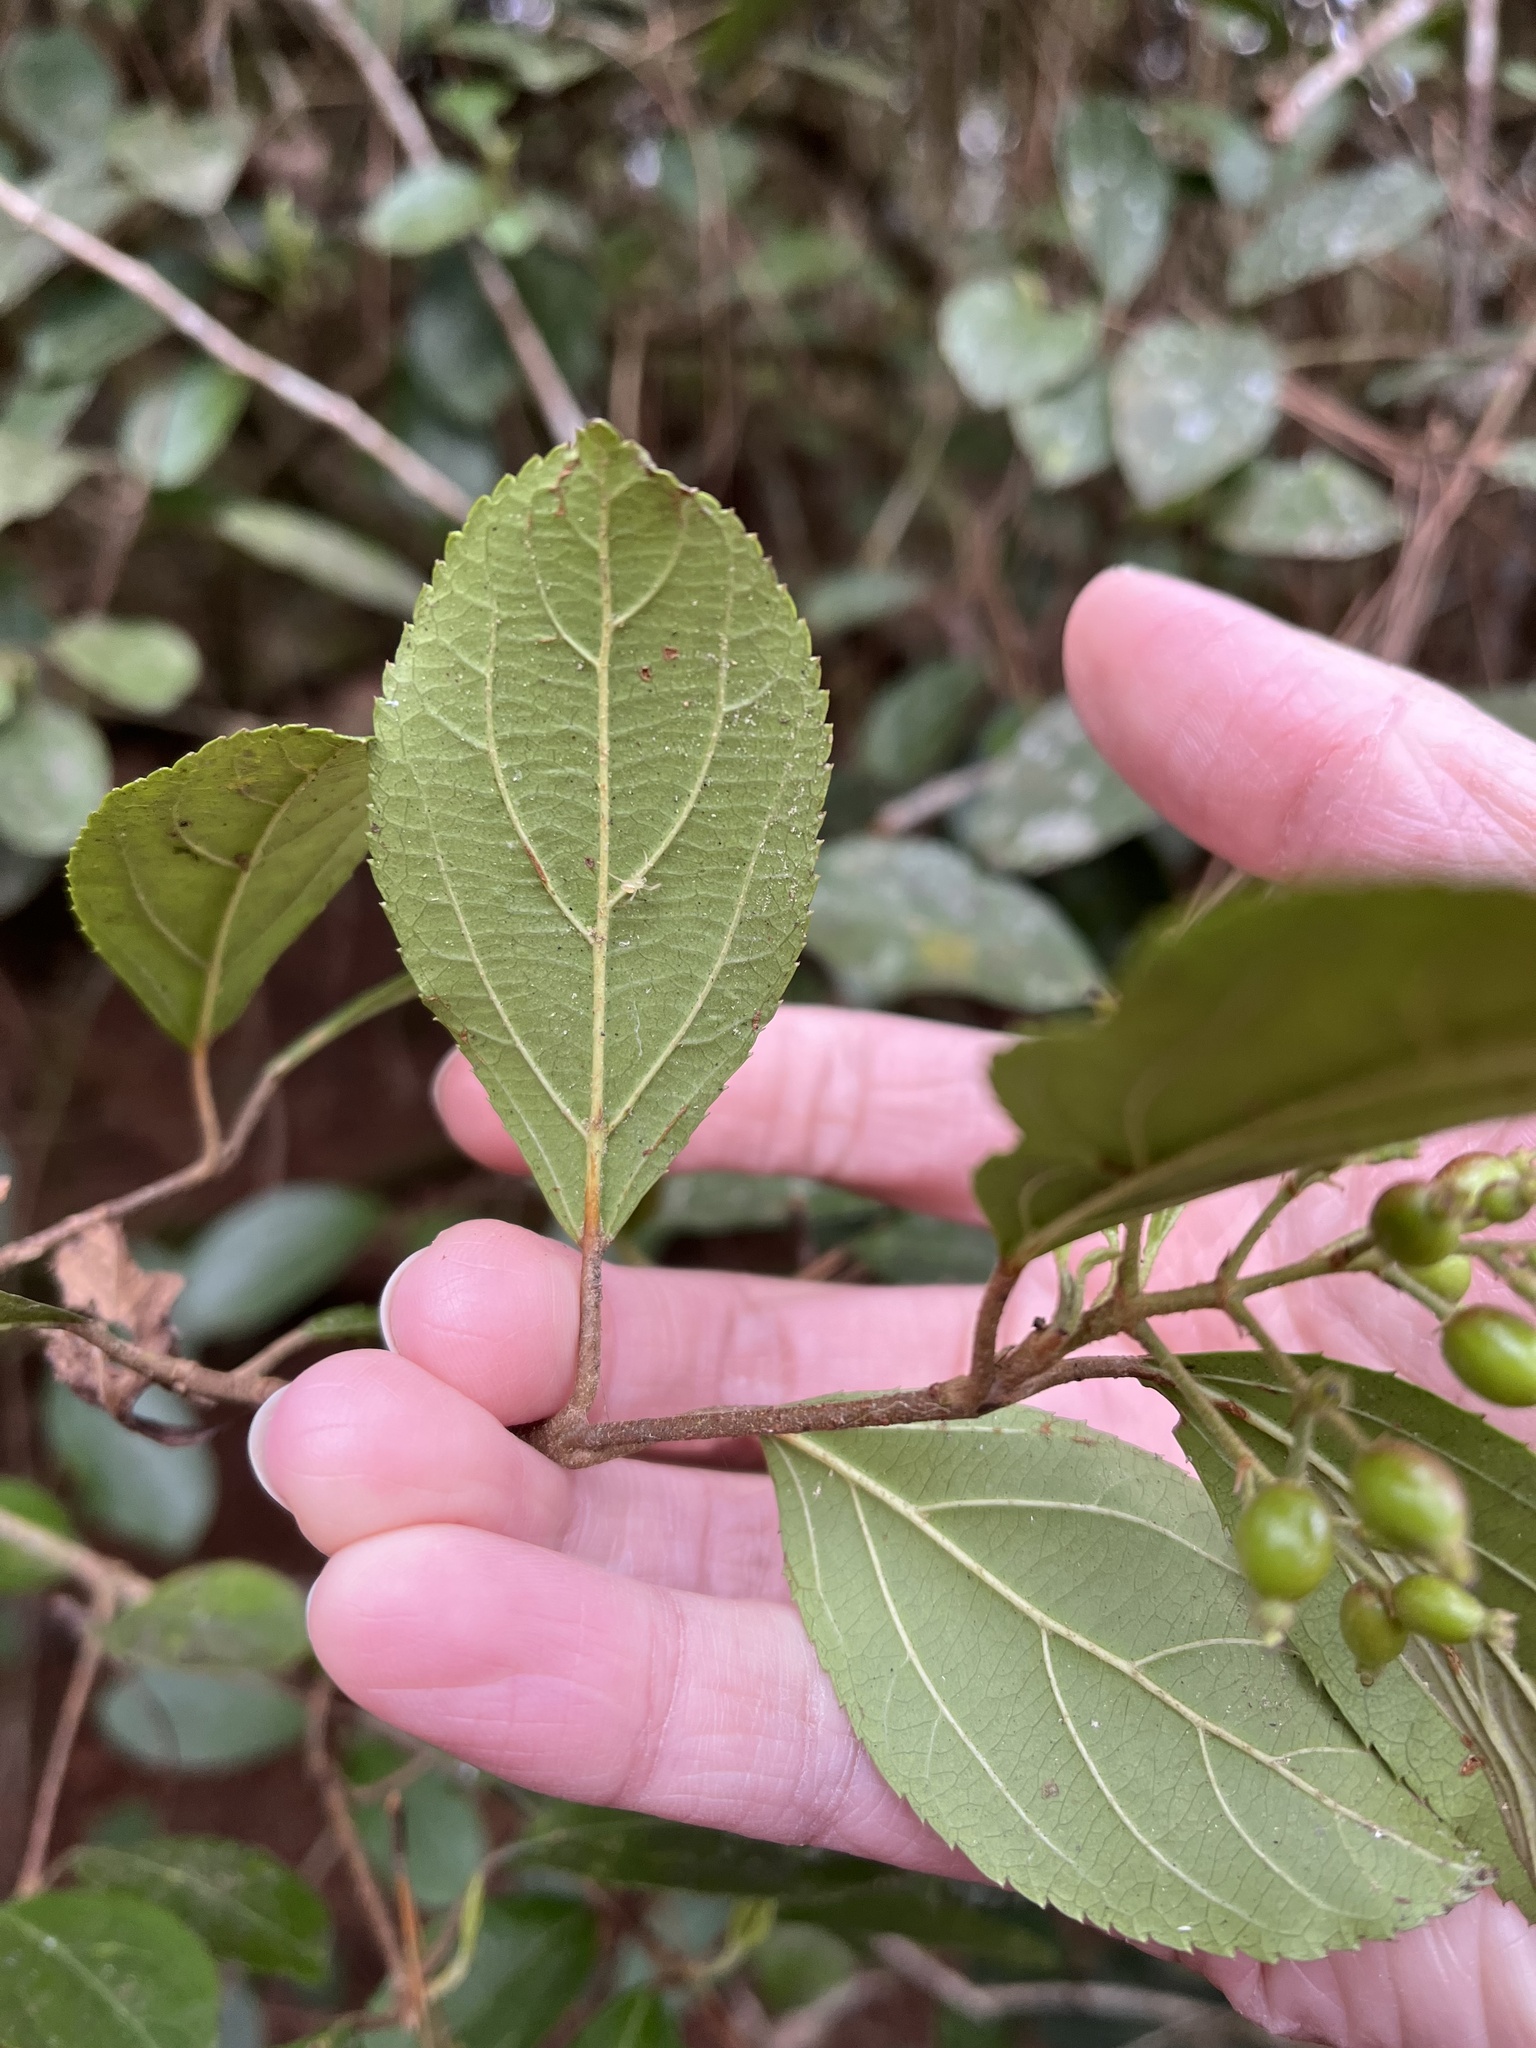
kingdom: Plantae
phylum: Tracheophyta
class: Magnoliopsida
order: Dipsacales
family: Viburnaceae
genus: Viburnum
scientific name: Viburnum taitoense
